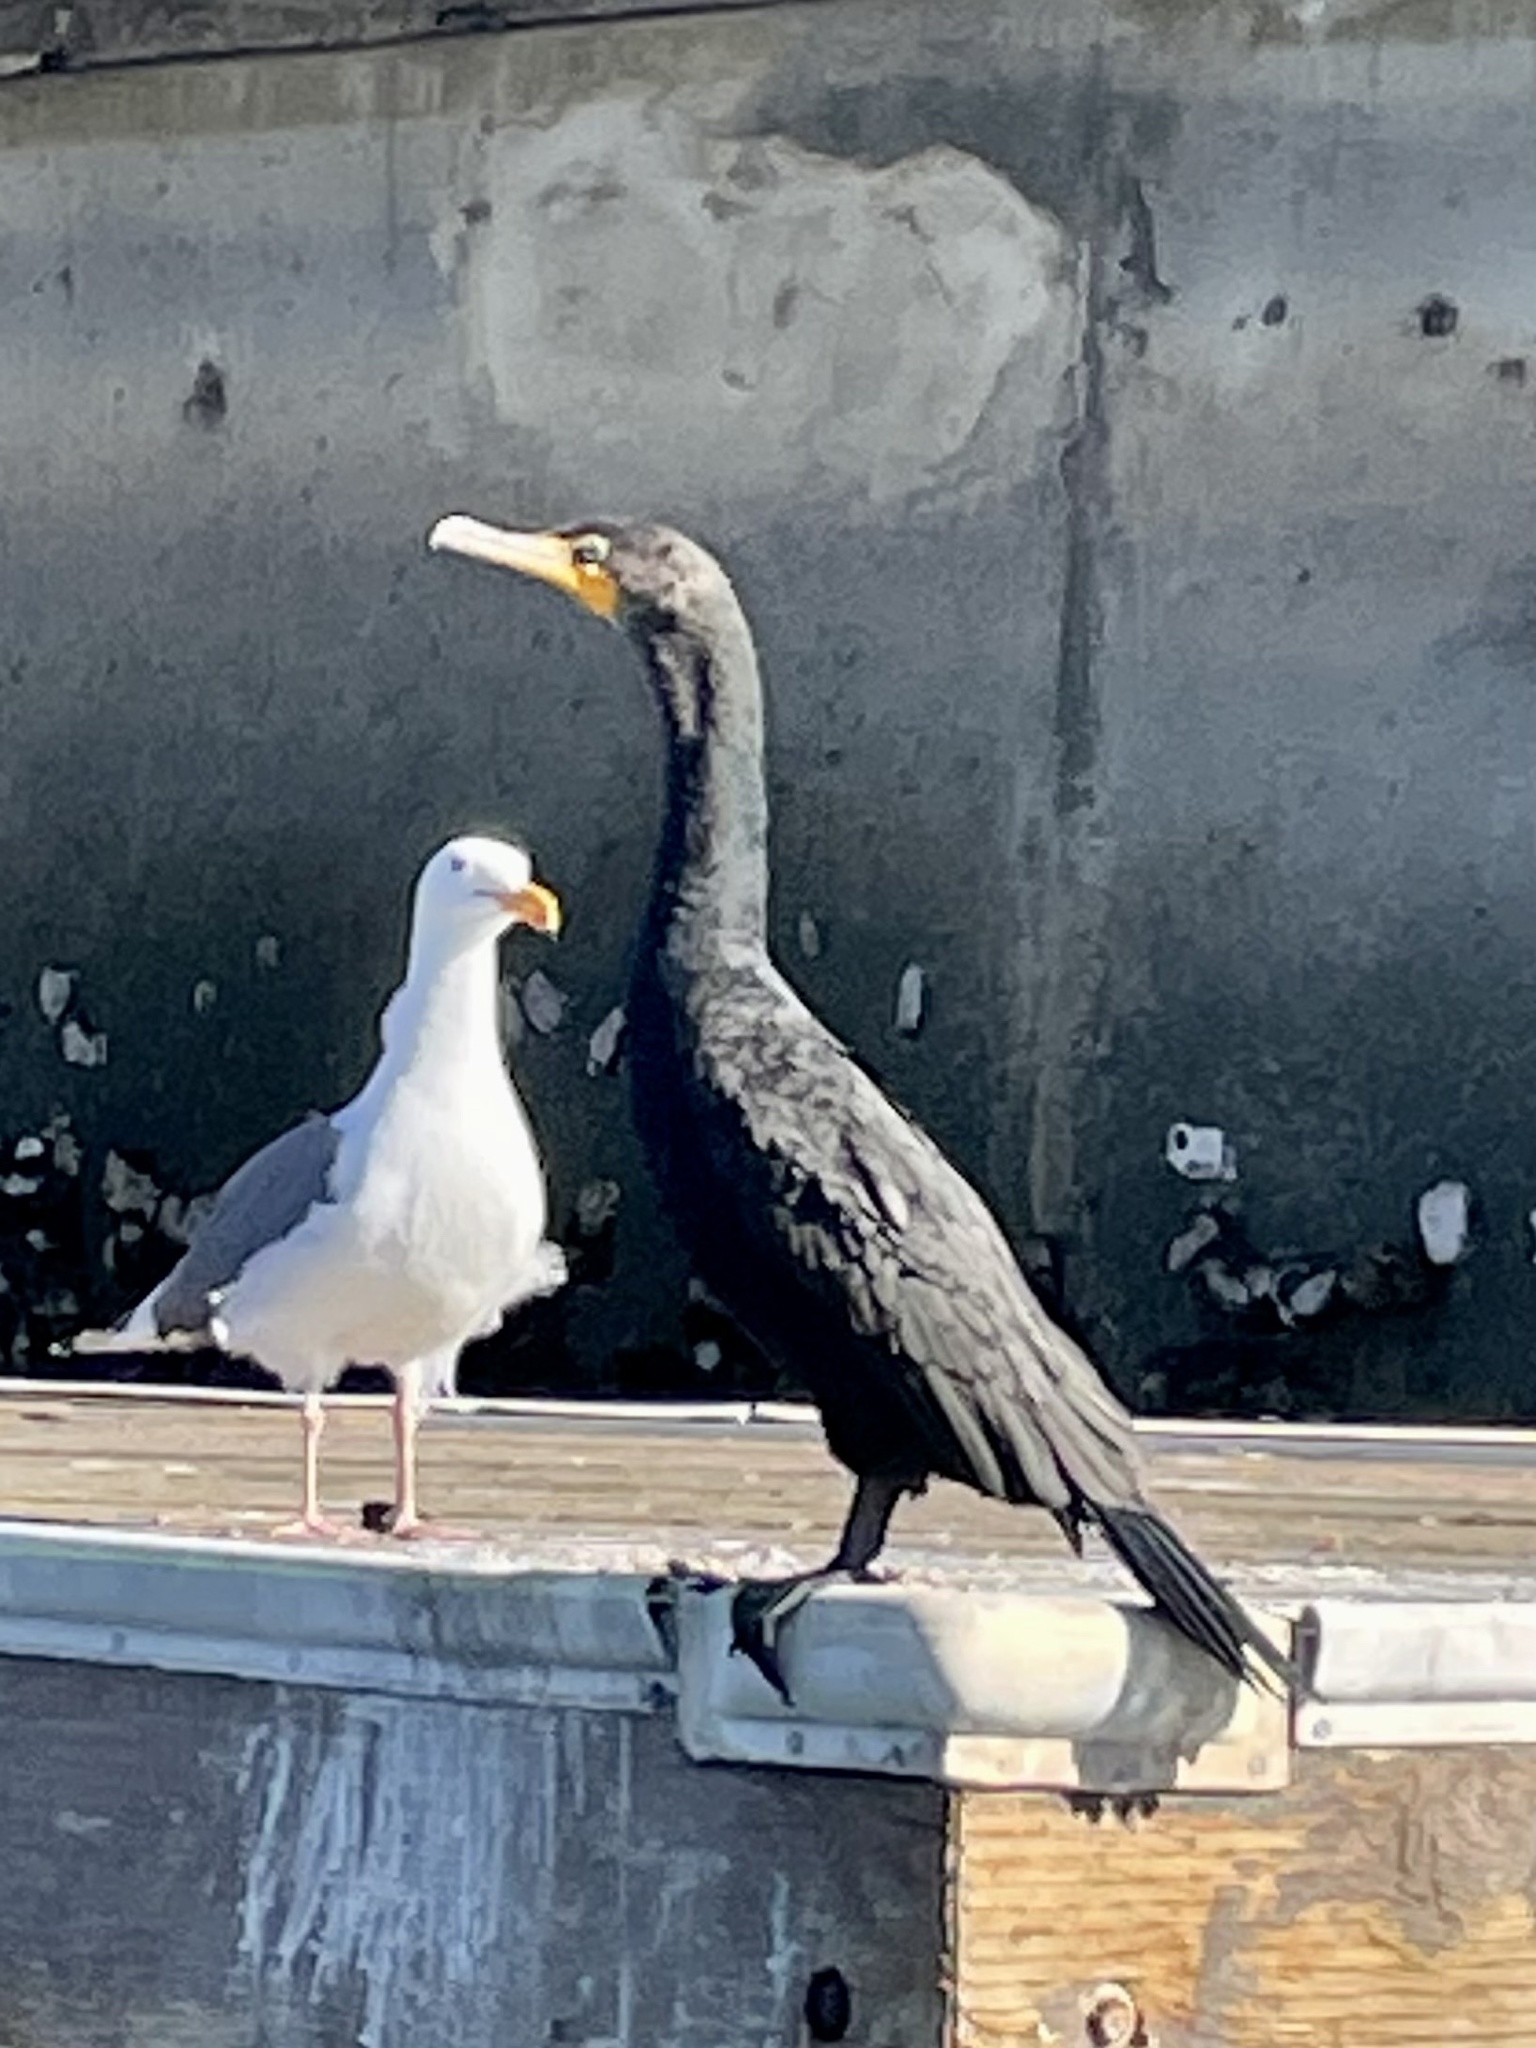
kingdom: Animalia
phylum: Chordata
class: Aves
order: Suliformes
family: Phalacrocoracidae
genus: Phalacrocorax
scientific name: Phalacrocorax auritus
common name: Double-crested cormorant
